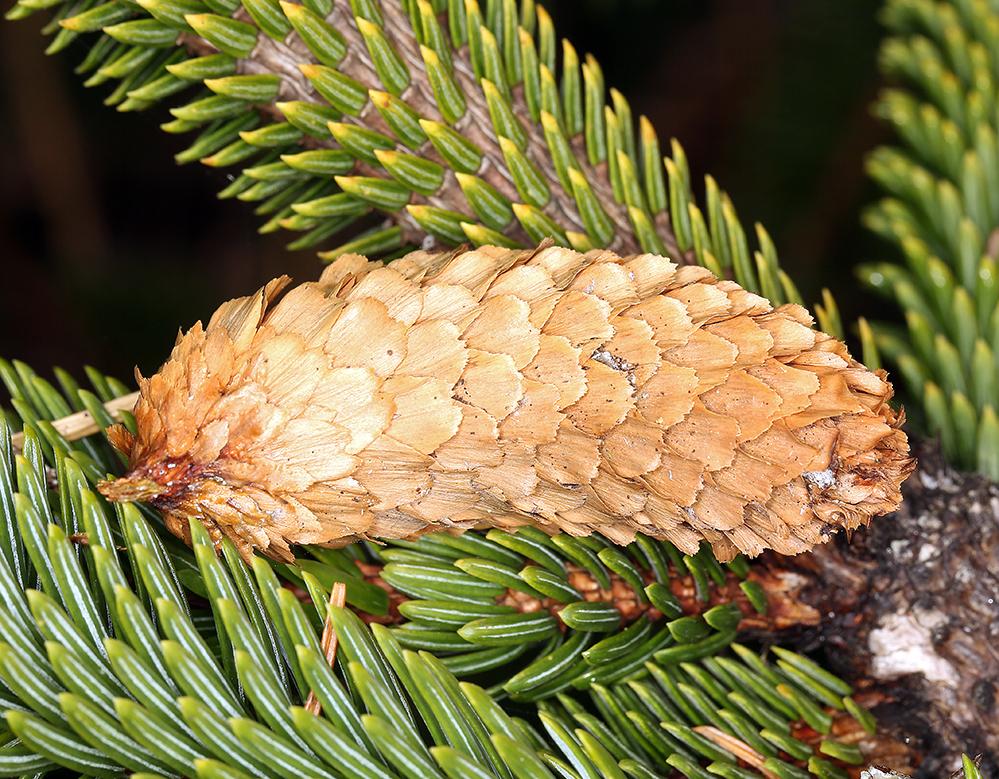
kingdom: Plantae
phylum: Tracheophyta
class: Pinopsida
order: Pinales
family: Pinaceae
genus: Picea
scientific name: Picea sitchensis
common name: Sitka spruce
